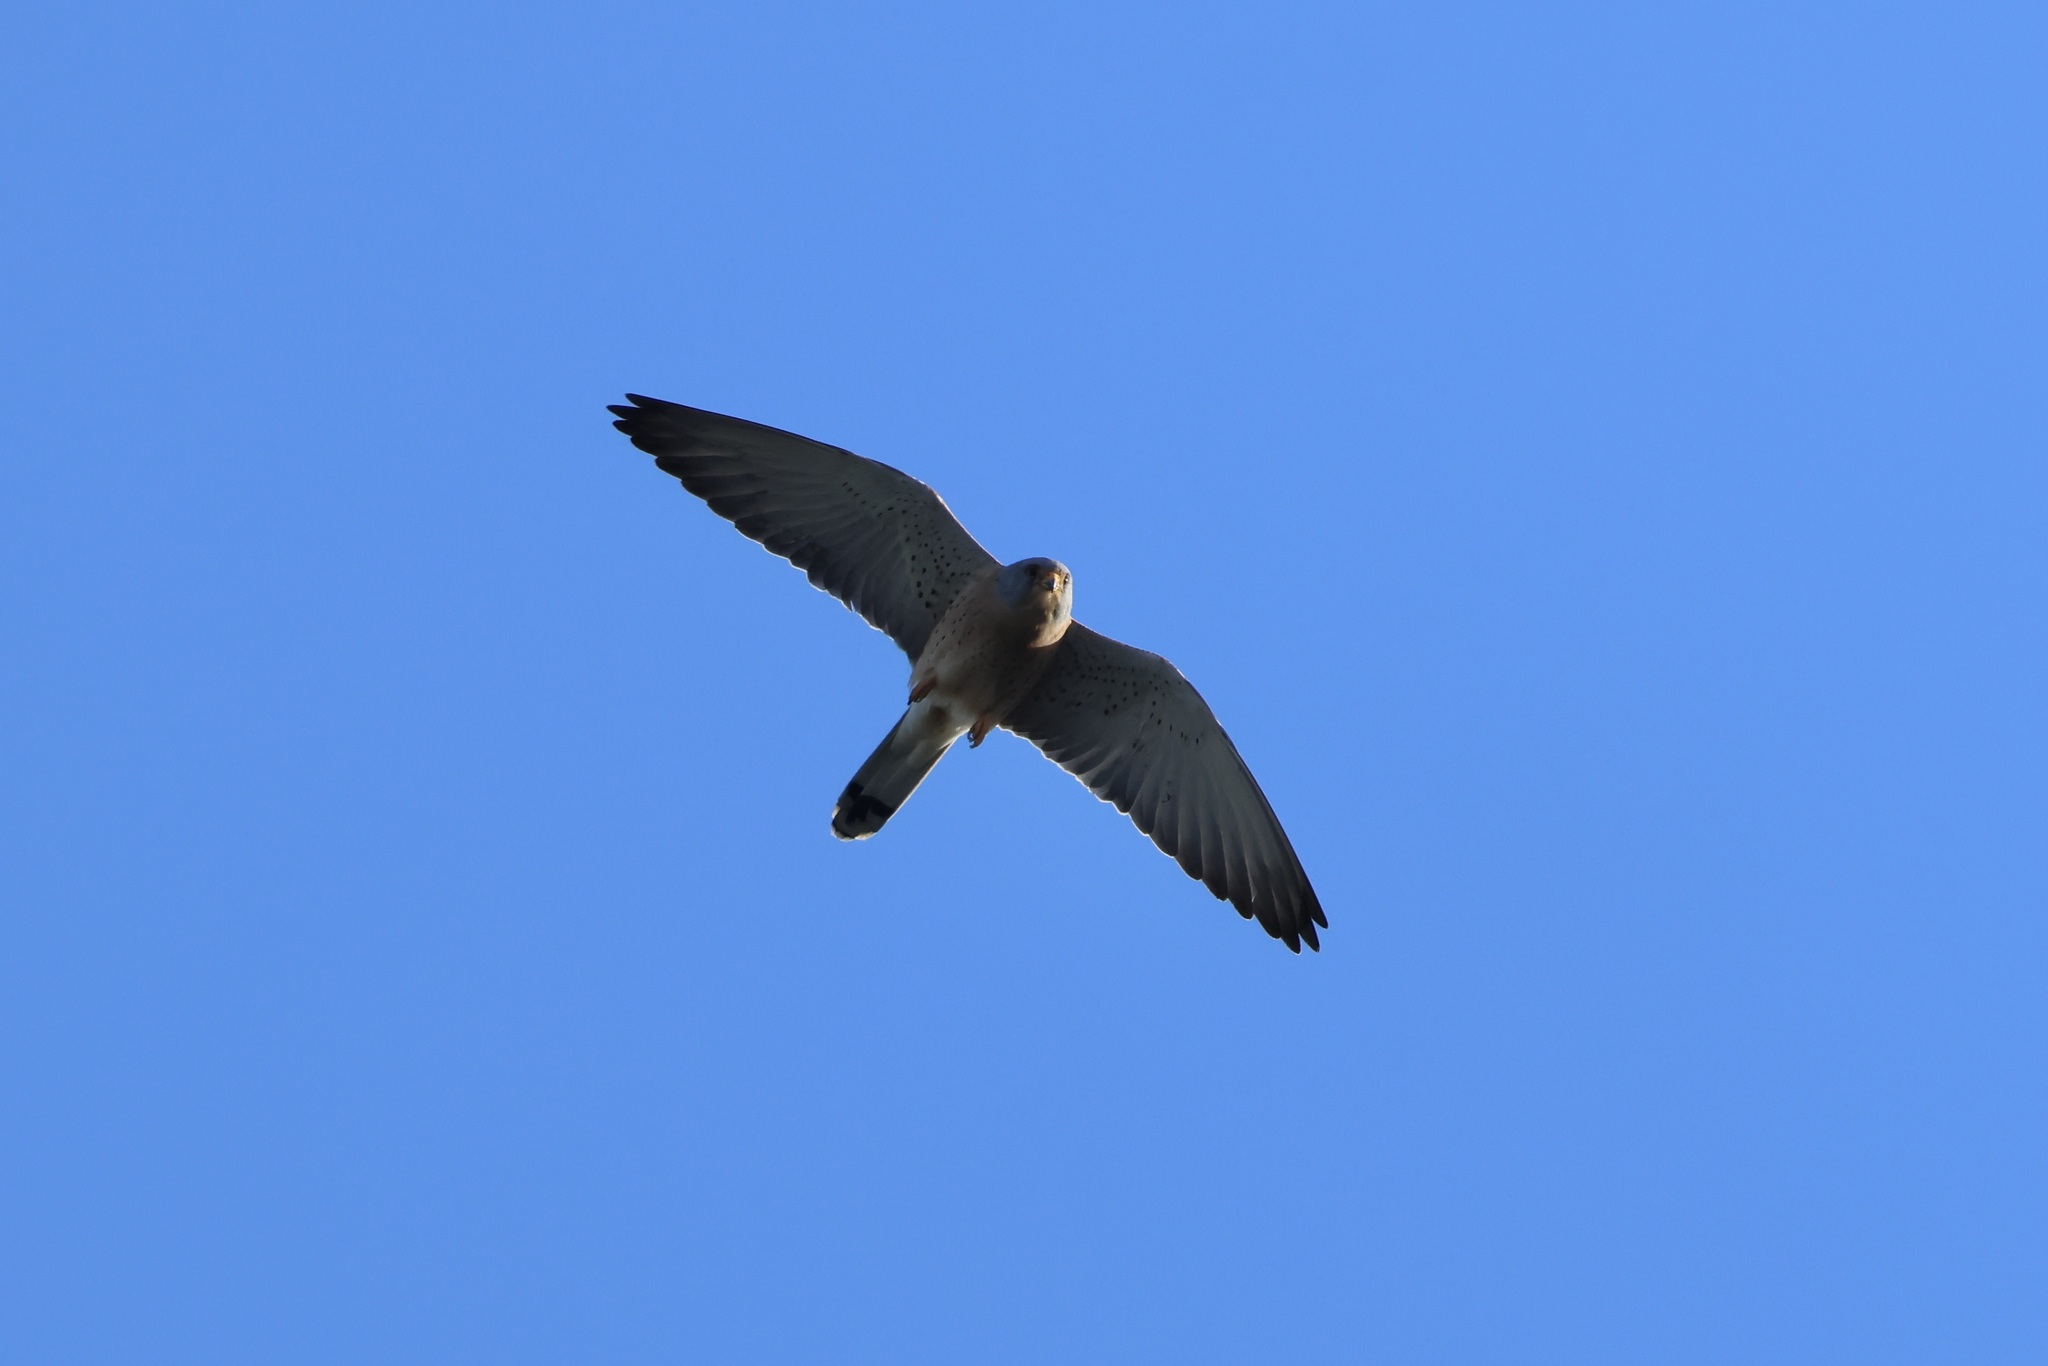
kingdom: Animalia
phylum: Chordata
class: Aves
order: Falconiformes
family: Falconidae
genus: Falco
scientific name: Falco naumanni
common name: Lesser kestrel
